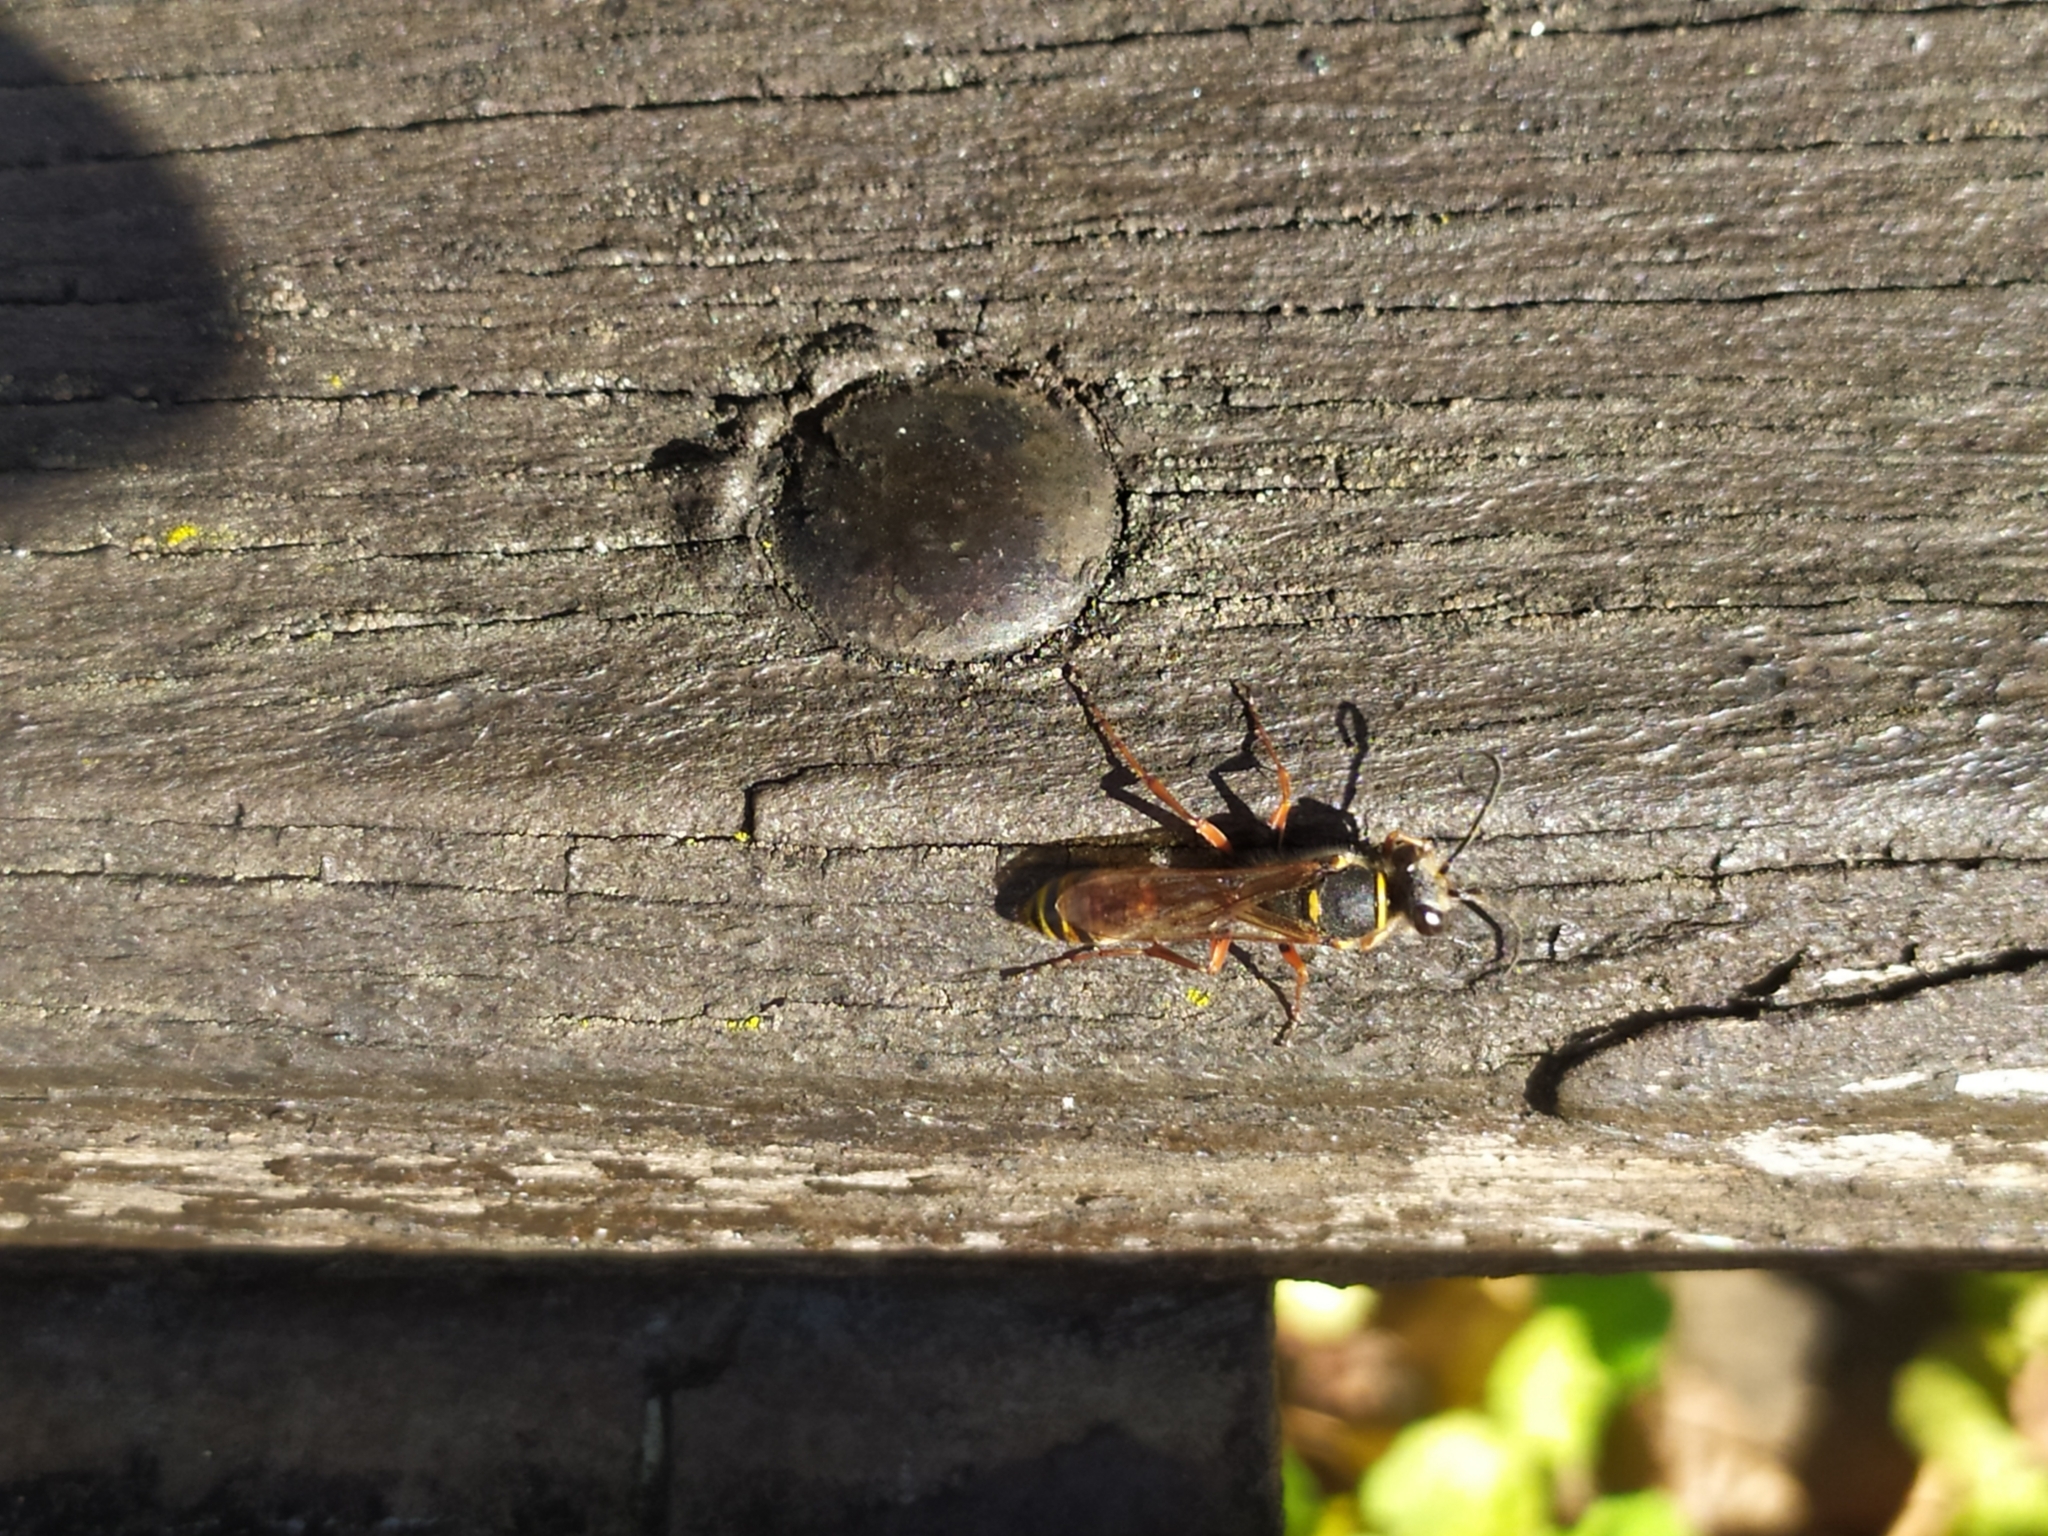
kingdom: Animalia
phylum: Arthropoda
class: Insecta
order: Hymenoptera
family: Sphecidae
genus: Sceliphron
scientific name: Sceliphron curvatum
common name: Pèlopèe
